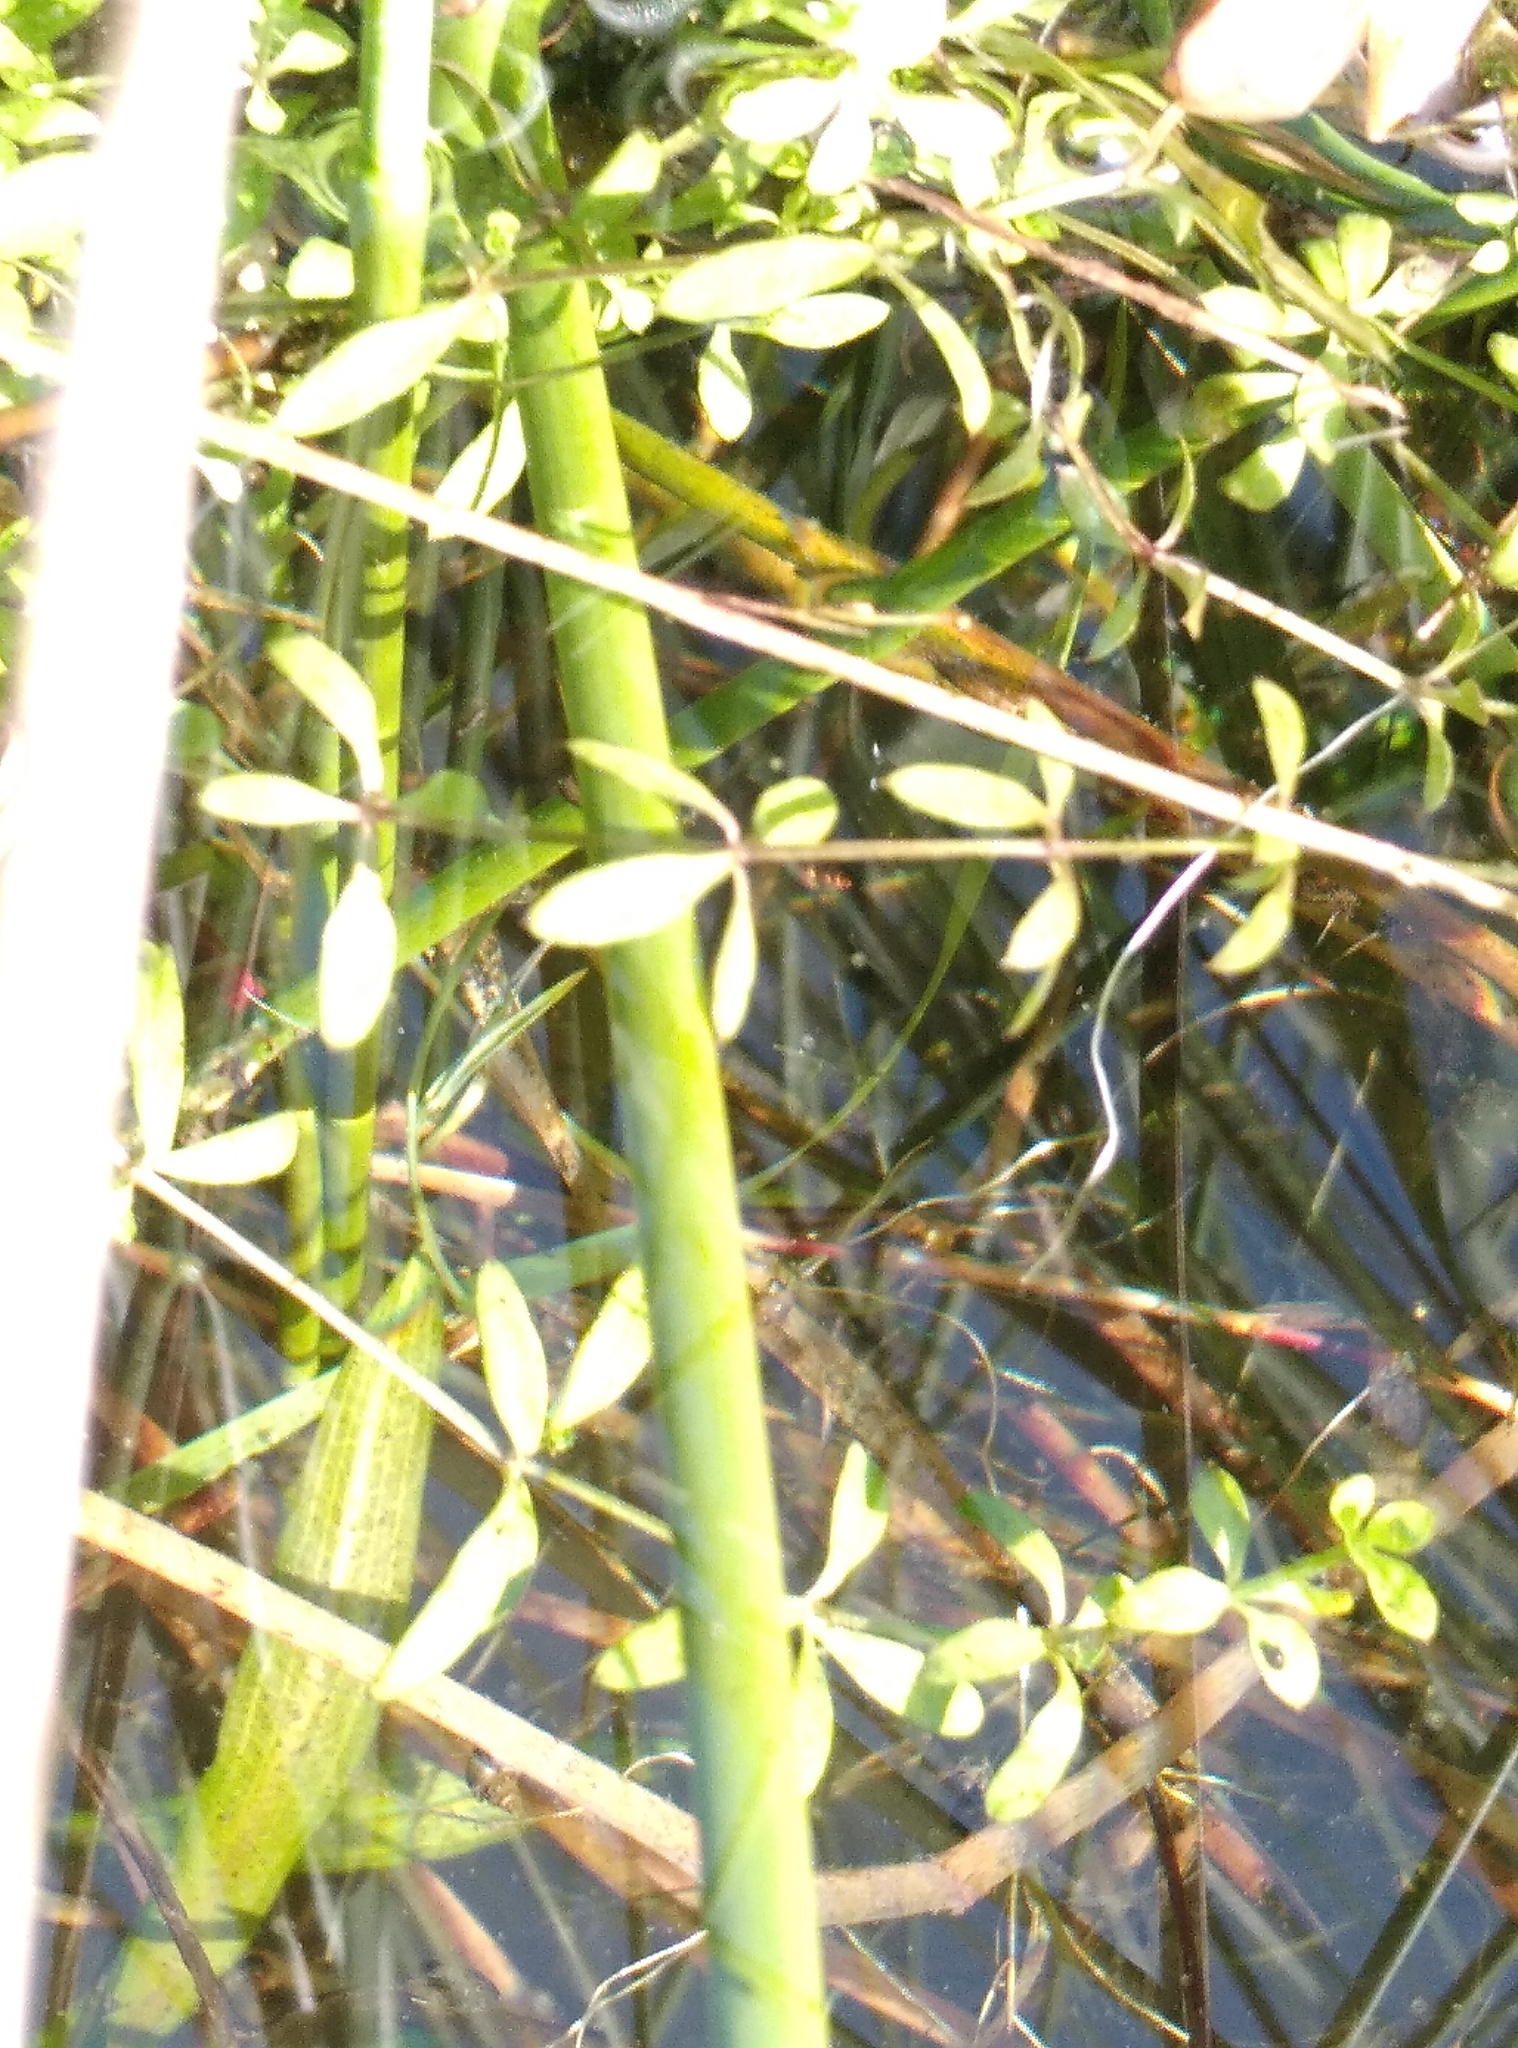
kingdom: Plantae
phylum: Tracheophyta
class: Magnoliopsida
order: Gentianales
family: Rubiaceae
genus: Galium
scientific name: Galium palustre
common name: Common marsh-bedstraw
